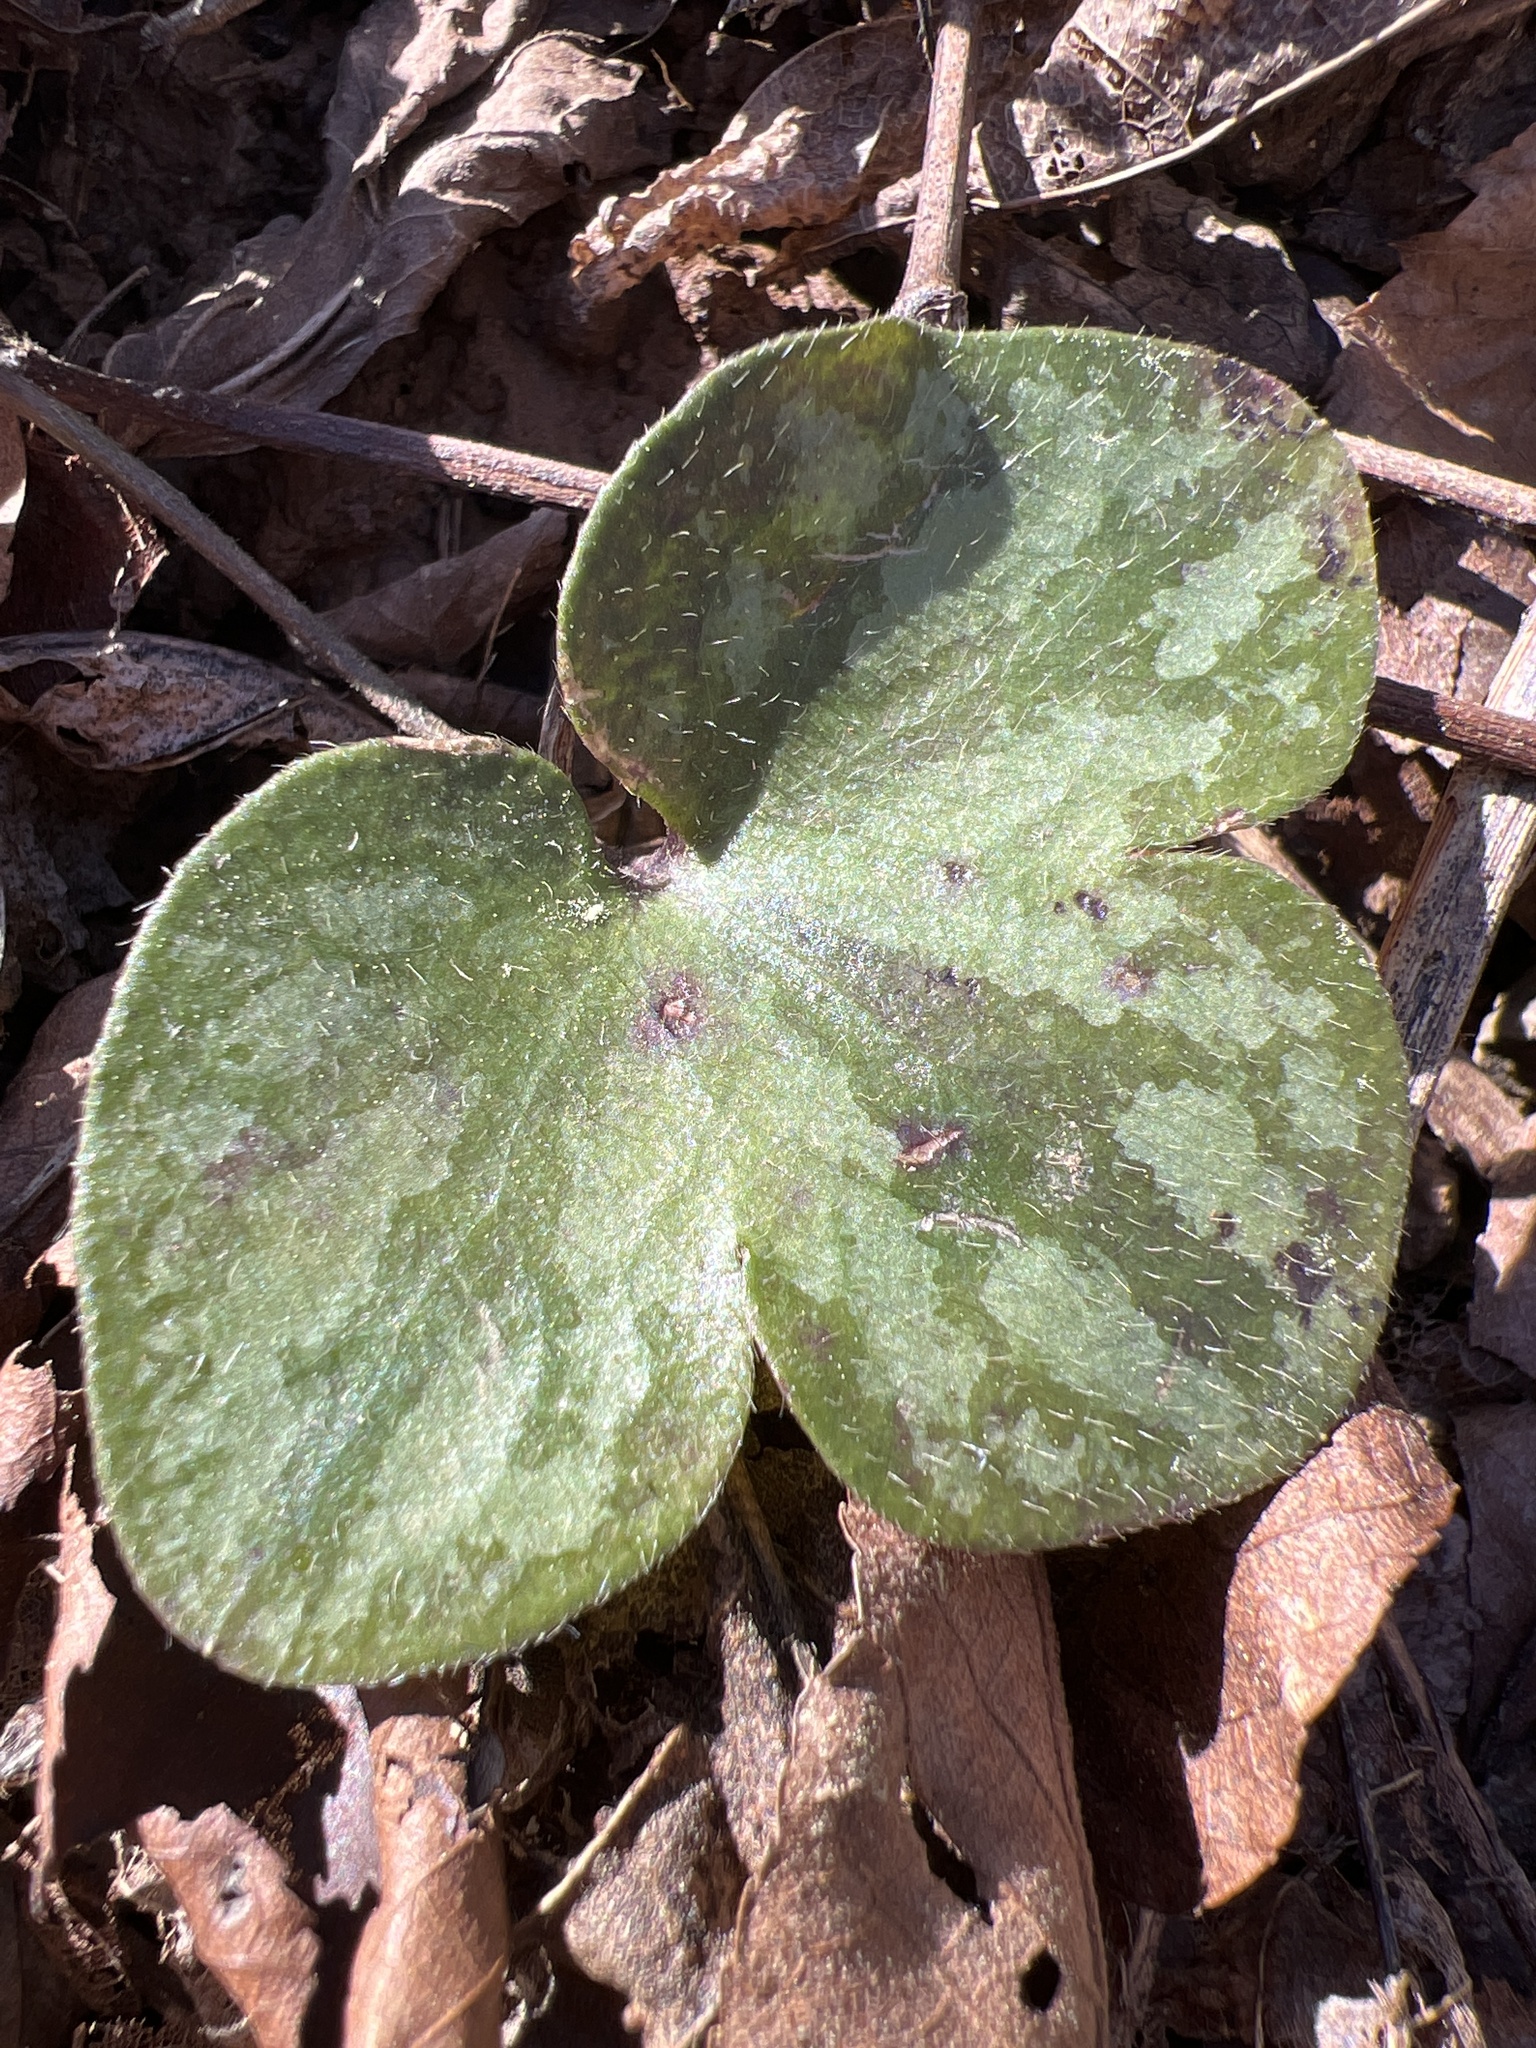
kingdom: Plantae
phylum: Tracheophyta
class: Magnoliopsida
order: Ranunculales
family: Ranunculaceae
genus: Hepatica
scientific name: Hepatica americana
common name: American hepatica
